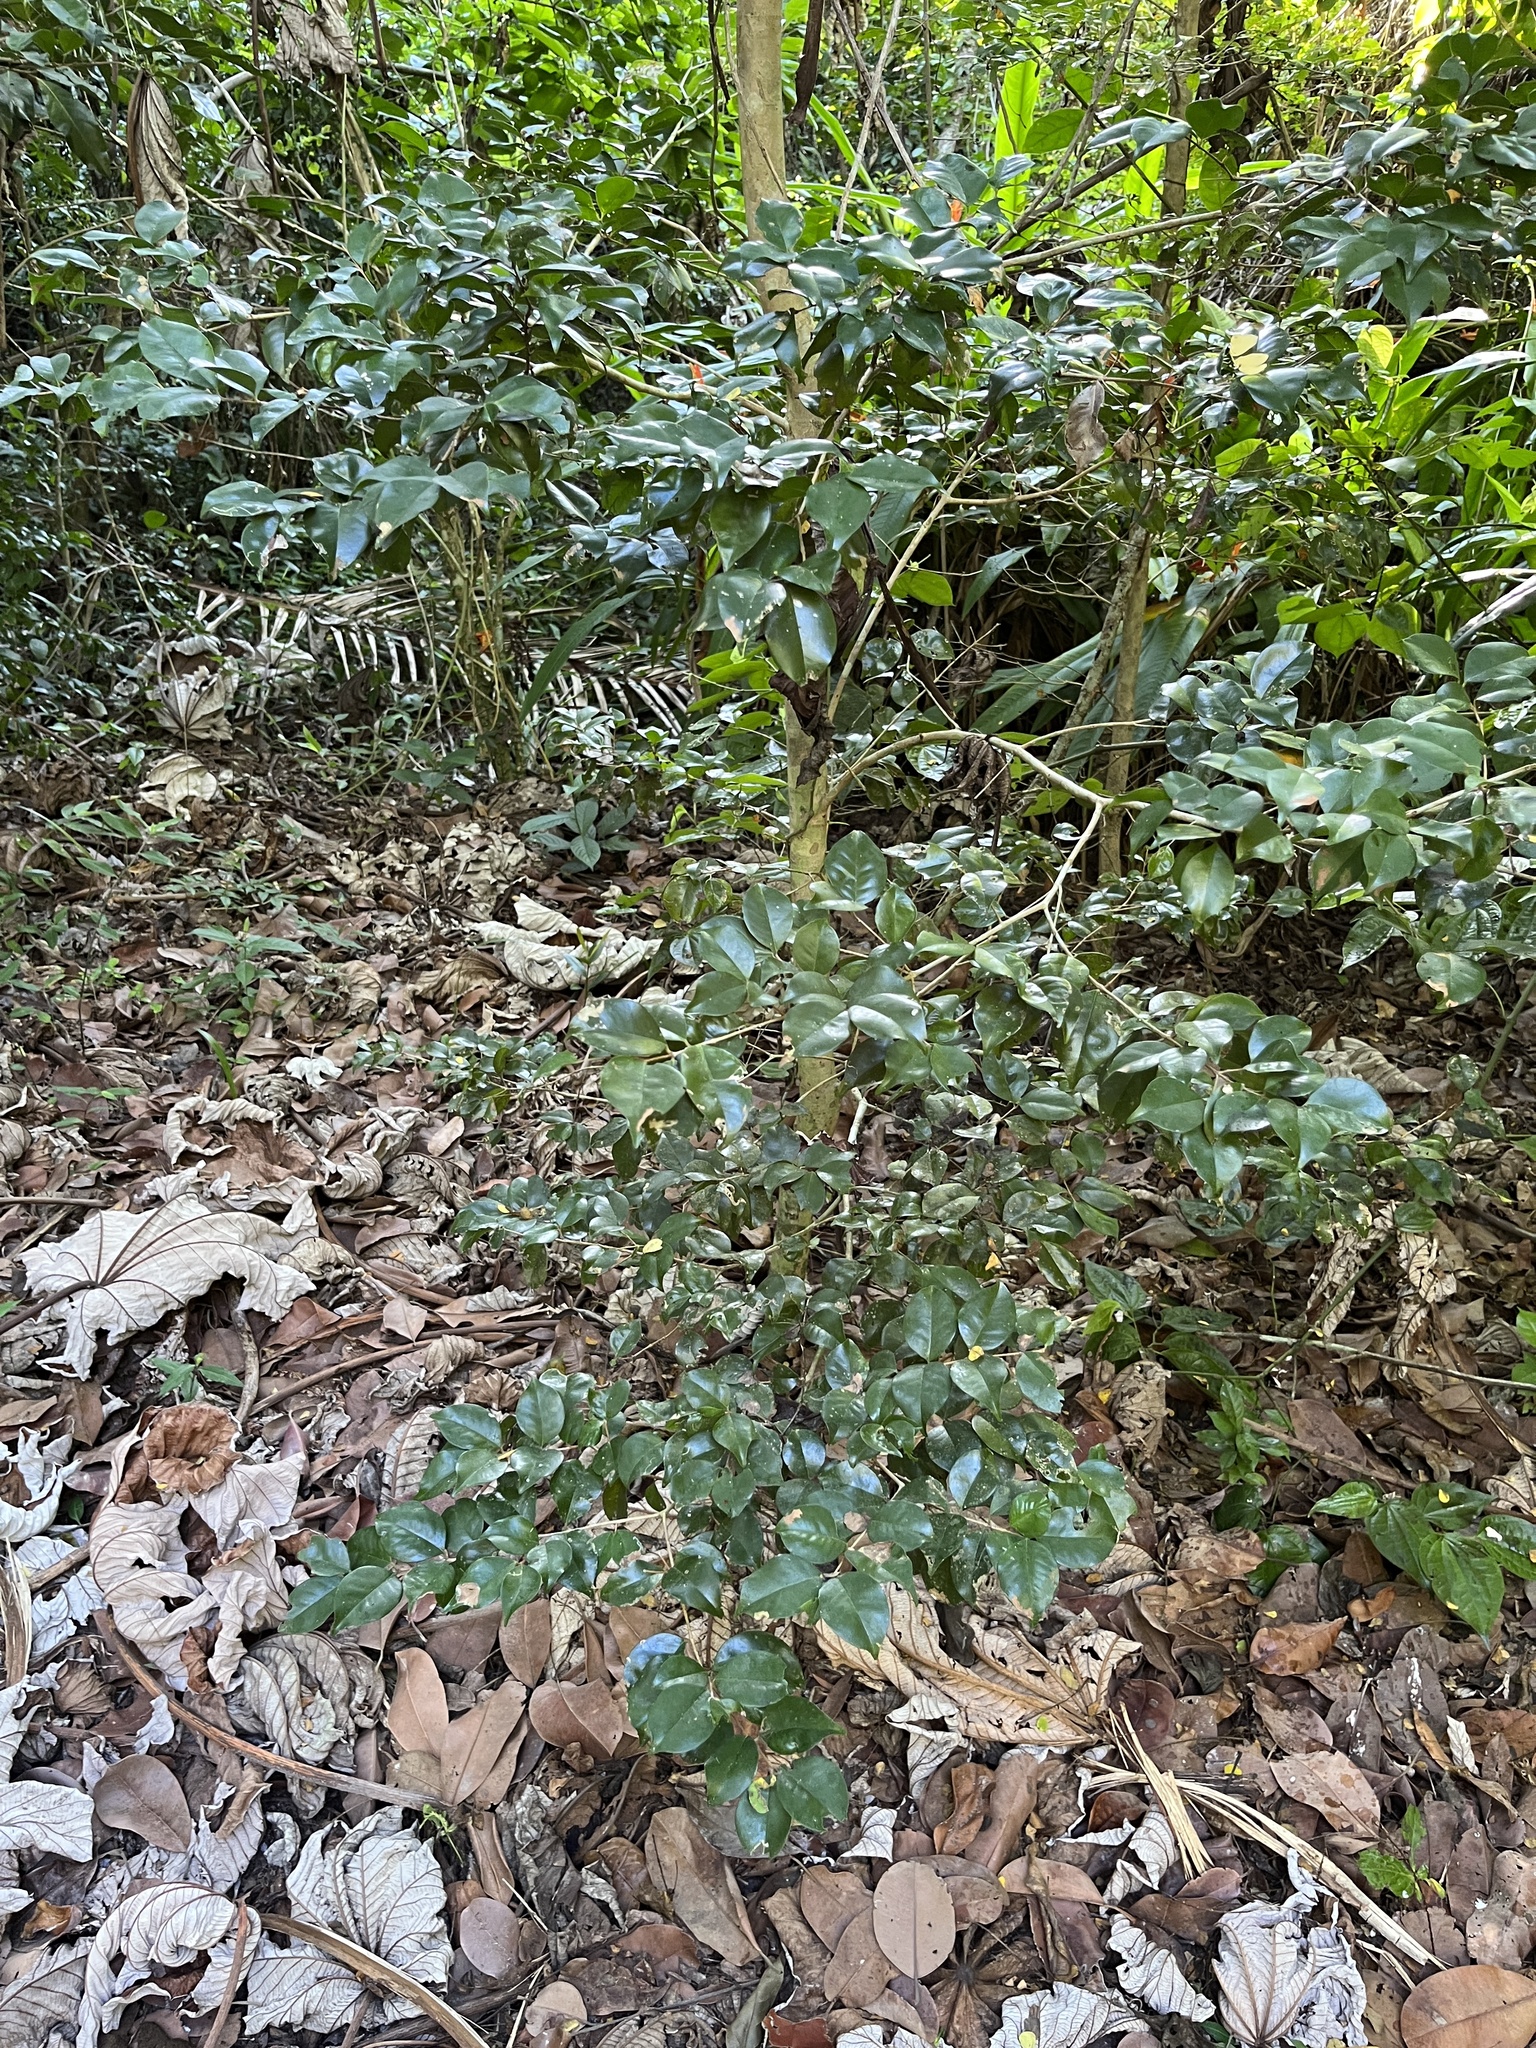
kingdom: Plantae
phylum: Tracheophyta
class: Magnoliopsida
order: Myrtales
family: Myrtaceae
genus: Eugenia
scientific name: Eugenia biflora
